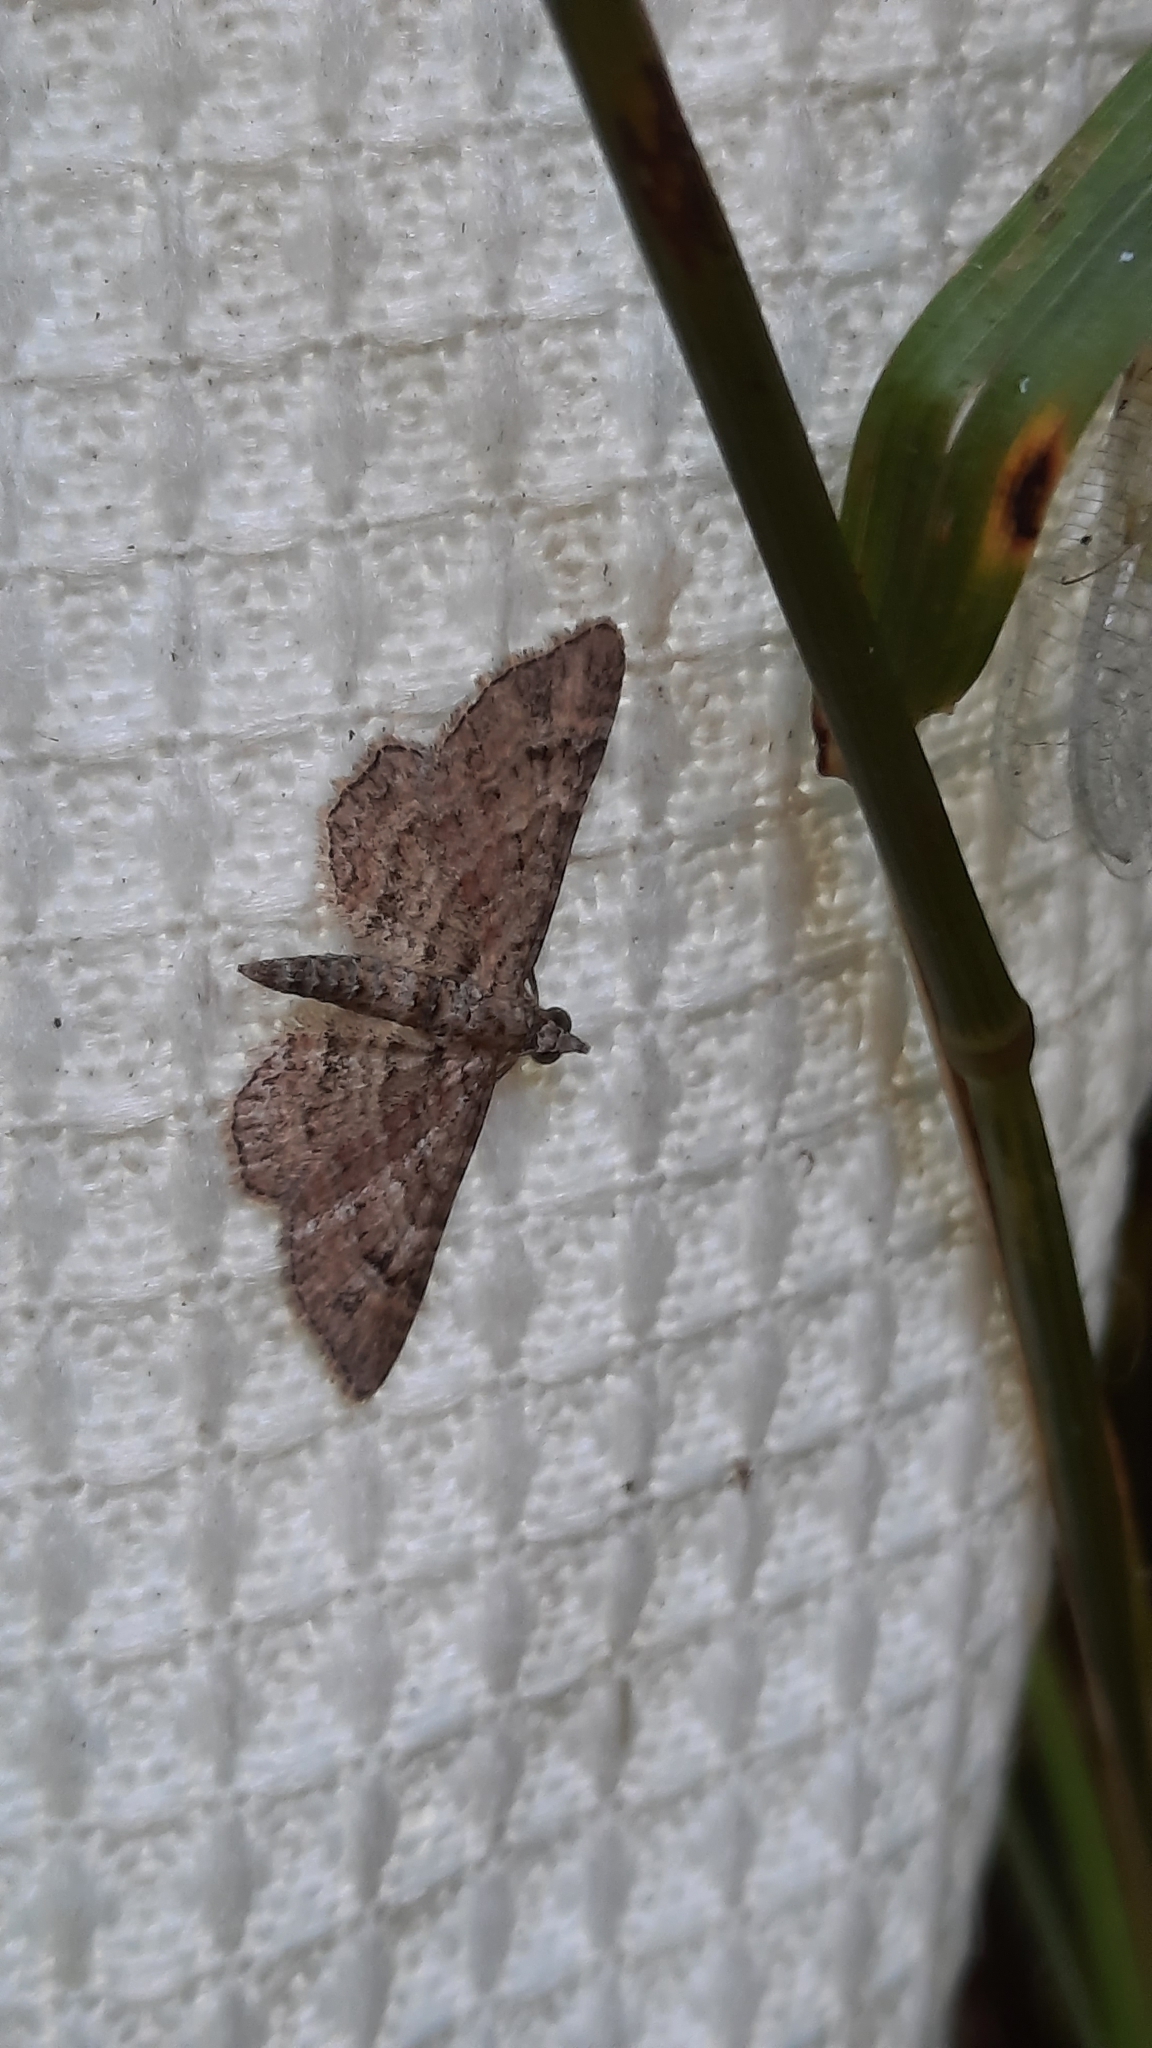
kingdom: Animalia
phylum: Arthropoda
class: Insecta
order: Lepidoptera
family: Geometridae
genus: Gymnoscelis
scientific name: Gymnoscelis rufifasciata
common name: Double-striped pug
